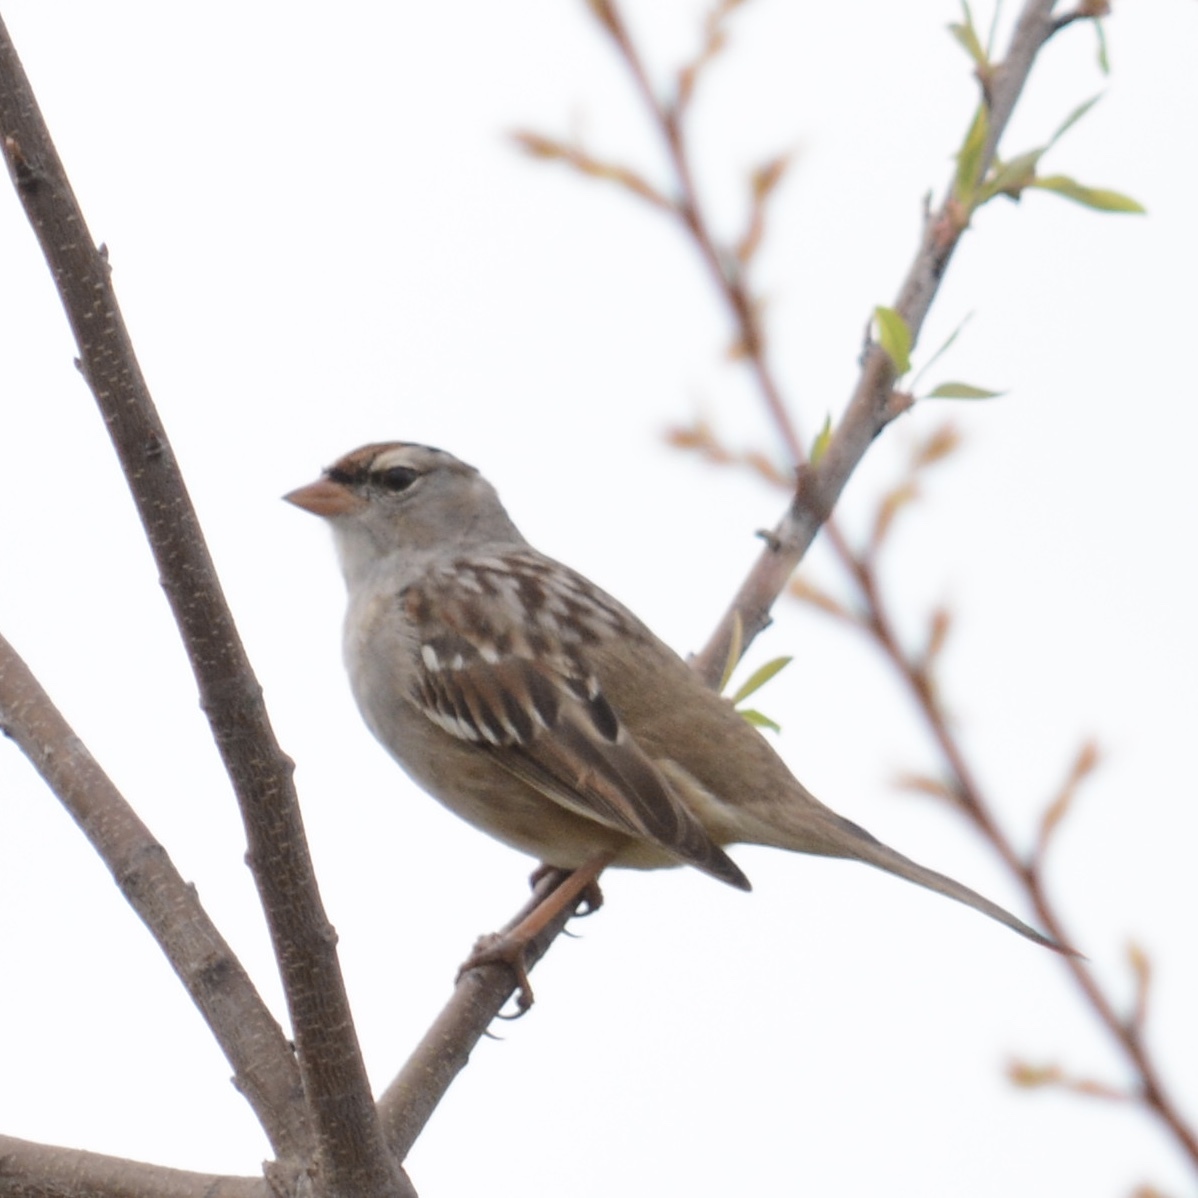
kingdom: Animalia
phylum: Chordata
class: Aves
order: Passeriformes
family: Passerellidae
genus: Zonotrichia
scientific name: Zonotrichia leucophrys
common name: White-crowned sparrow
